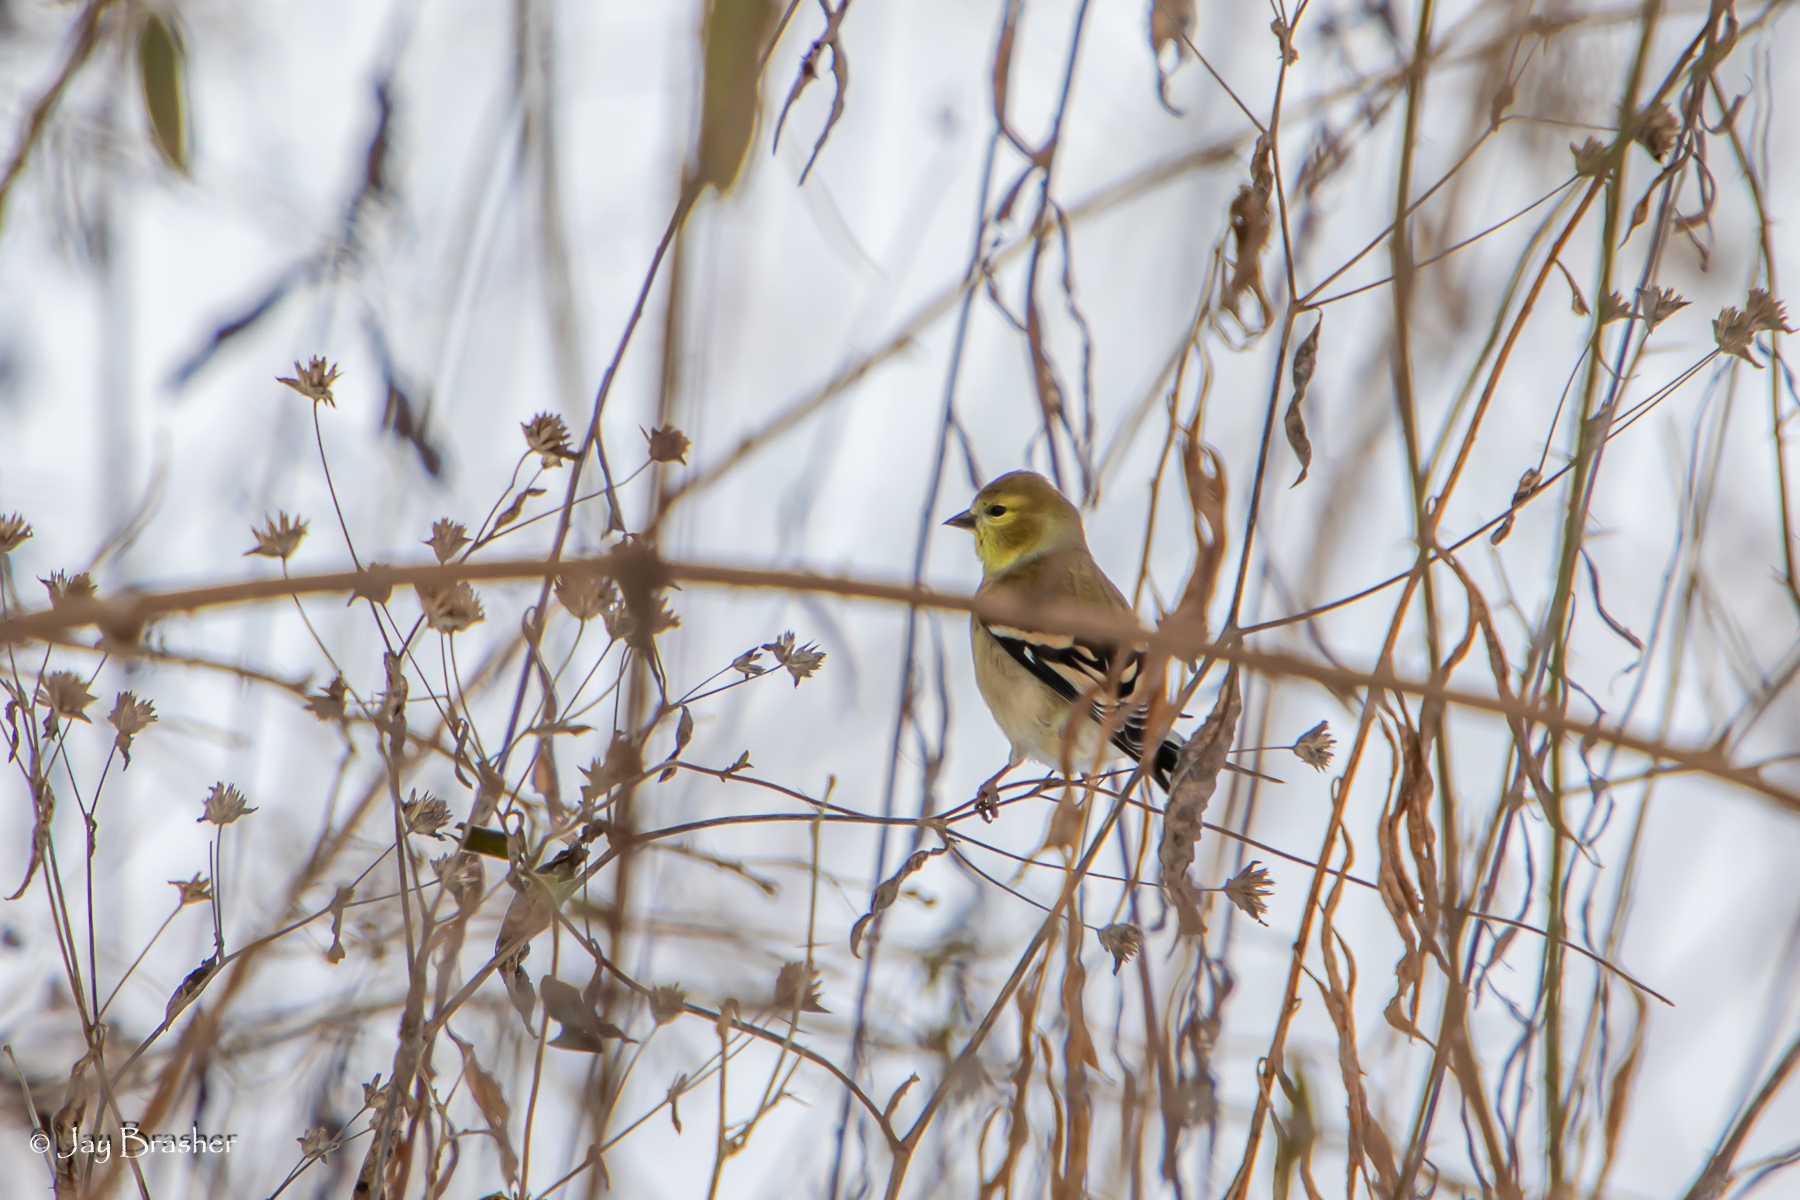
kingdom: Animalia
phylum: Chordata
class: Aves
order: Passeriformes
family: Fringillidae
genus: Spinus
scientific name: Spinus tristis
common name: American goldfinch
